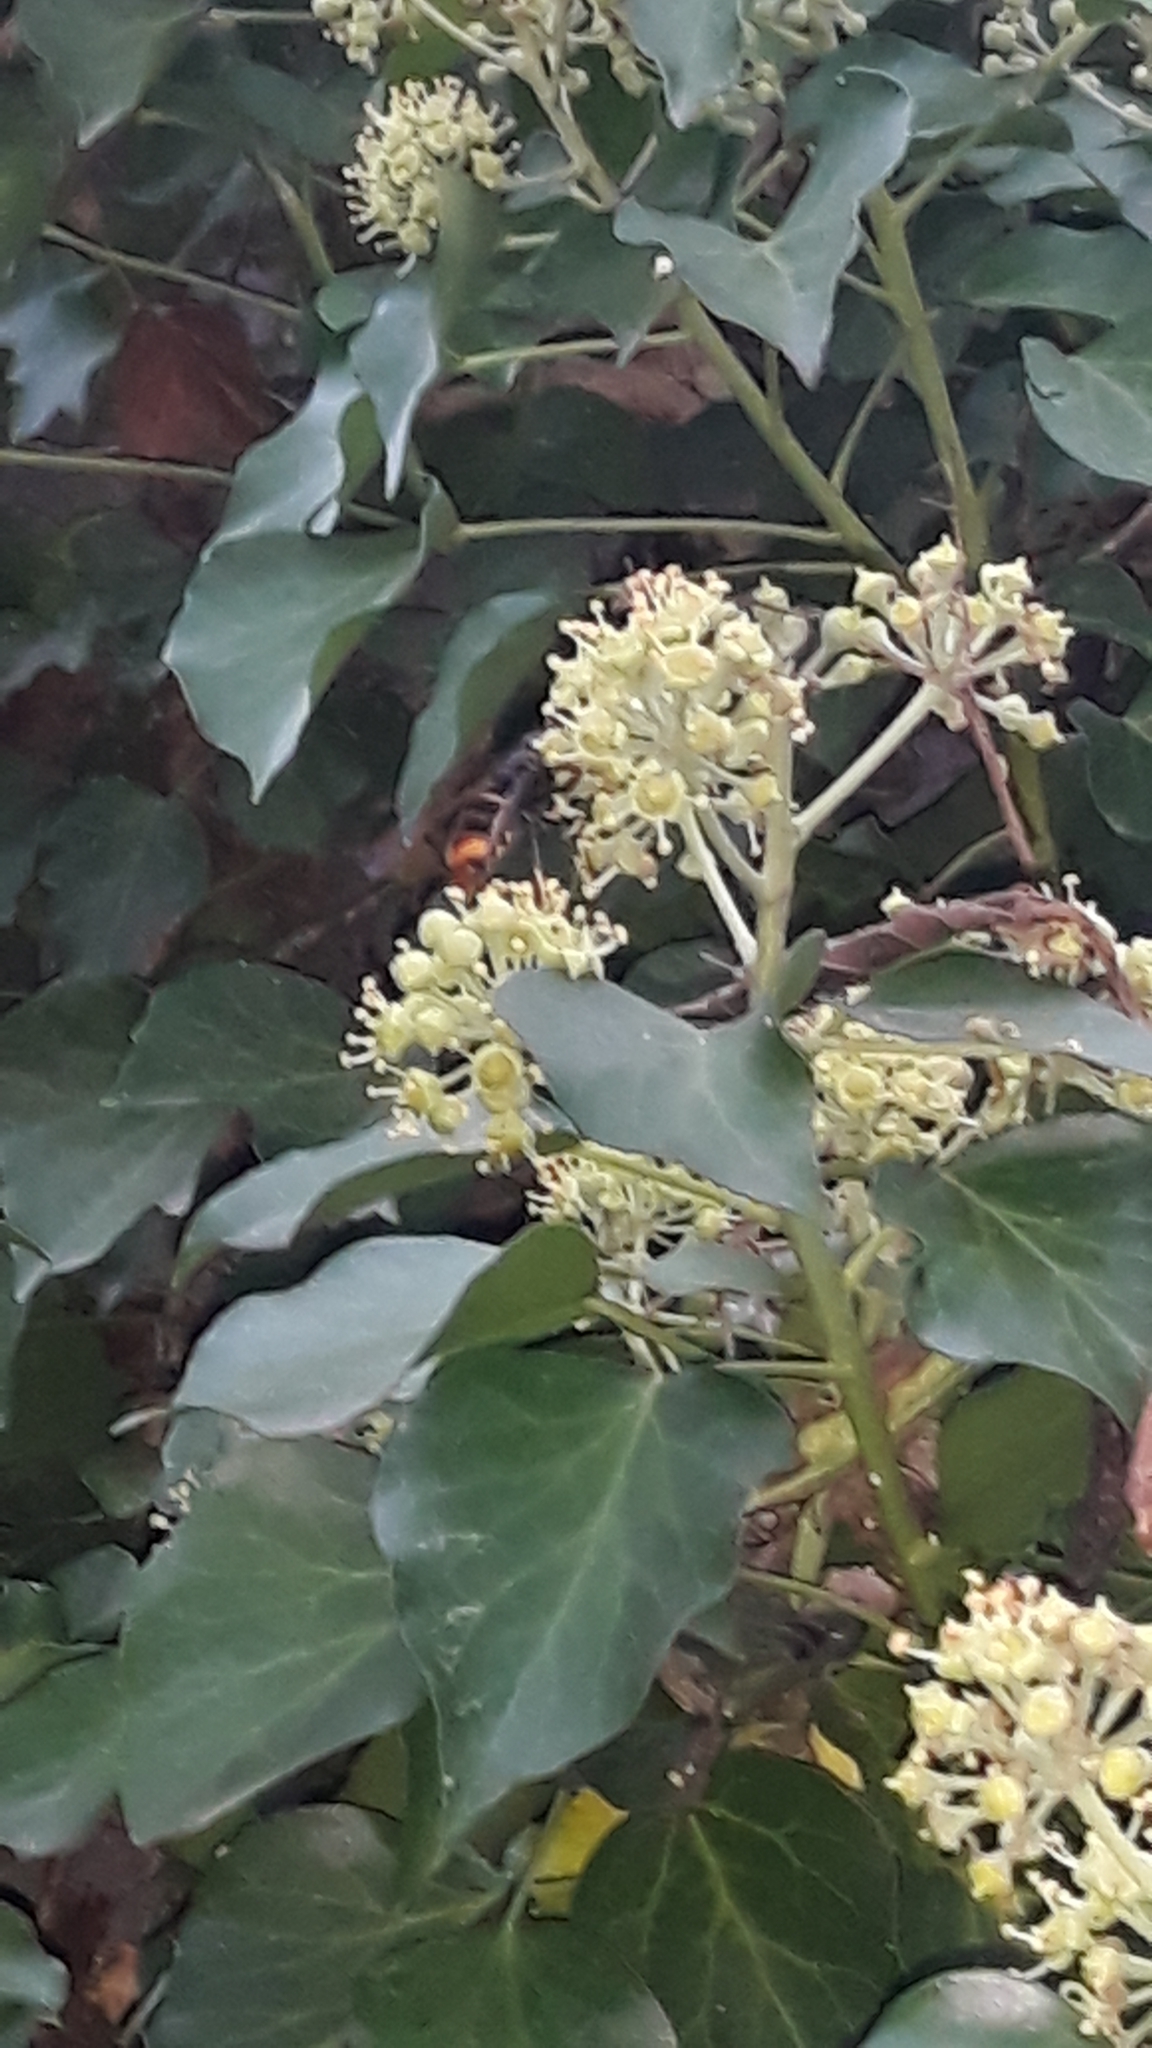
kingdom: Animalia
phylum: Arthropoda
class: Insecta
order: Hymenoptera
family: Vespidae
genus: Vespa
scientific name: Vespa velutina
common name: Asian hornet
